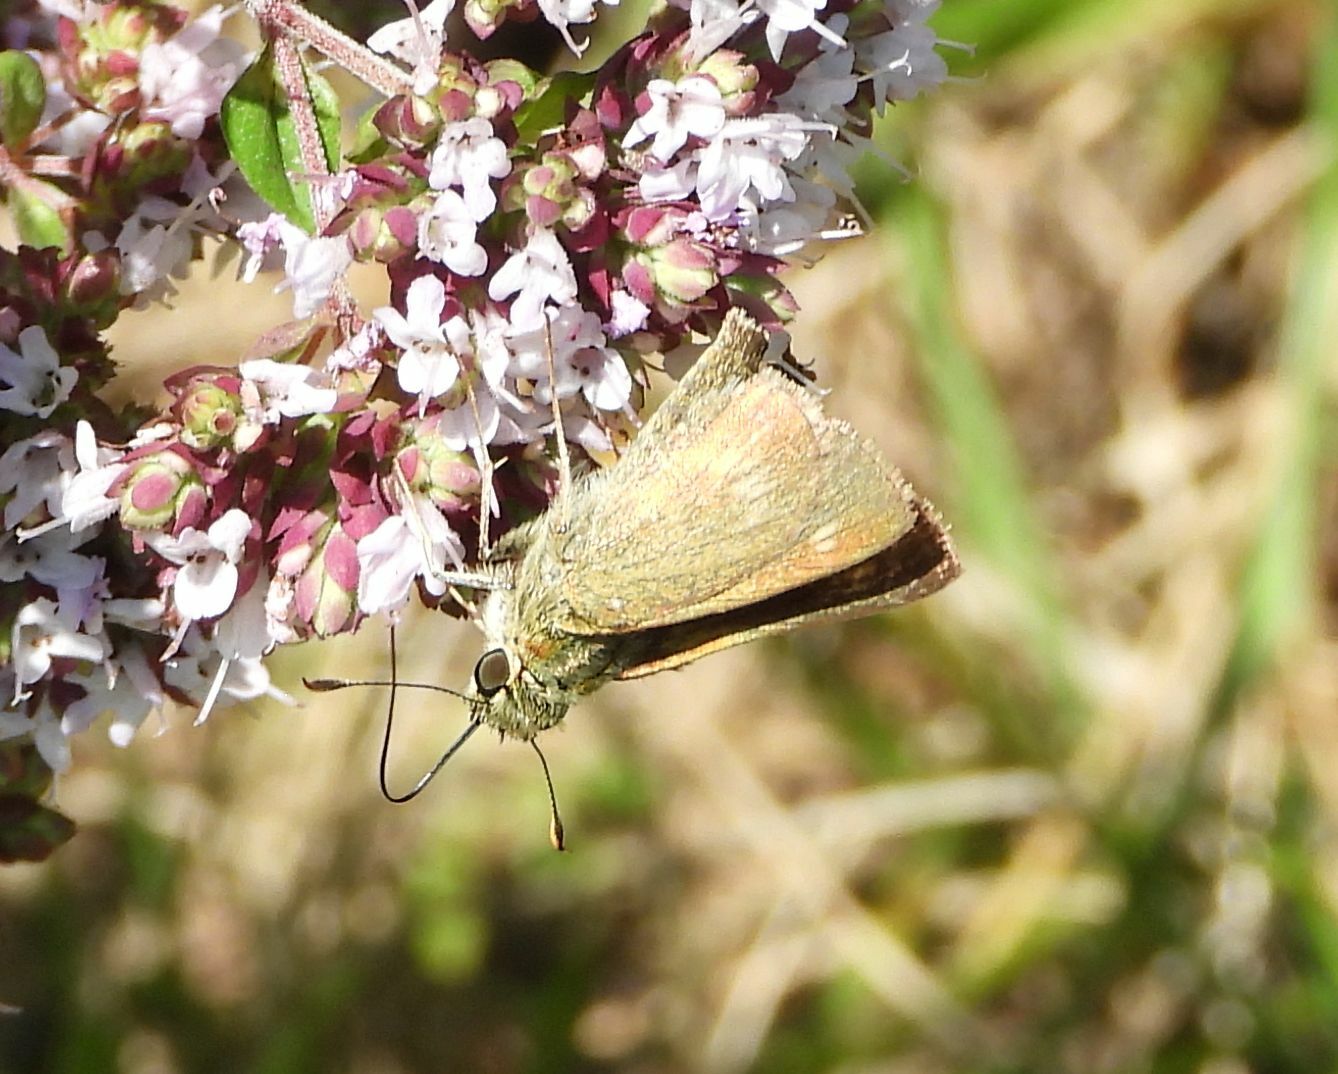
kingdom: Animalia
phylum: Arthropoda
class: Insecta
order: Lepidoptera
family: Hesperiidae
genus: Polites
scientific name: Polites origenes
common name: Crossline skipper
